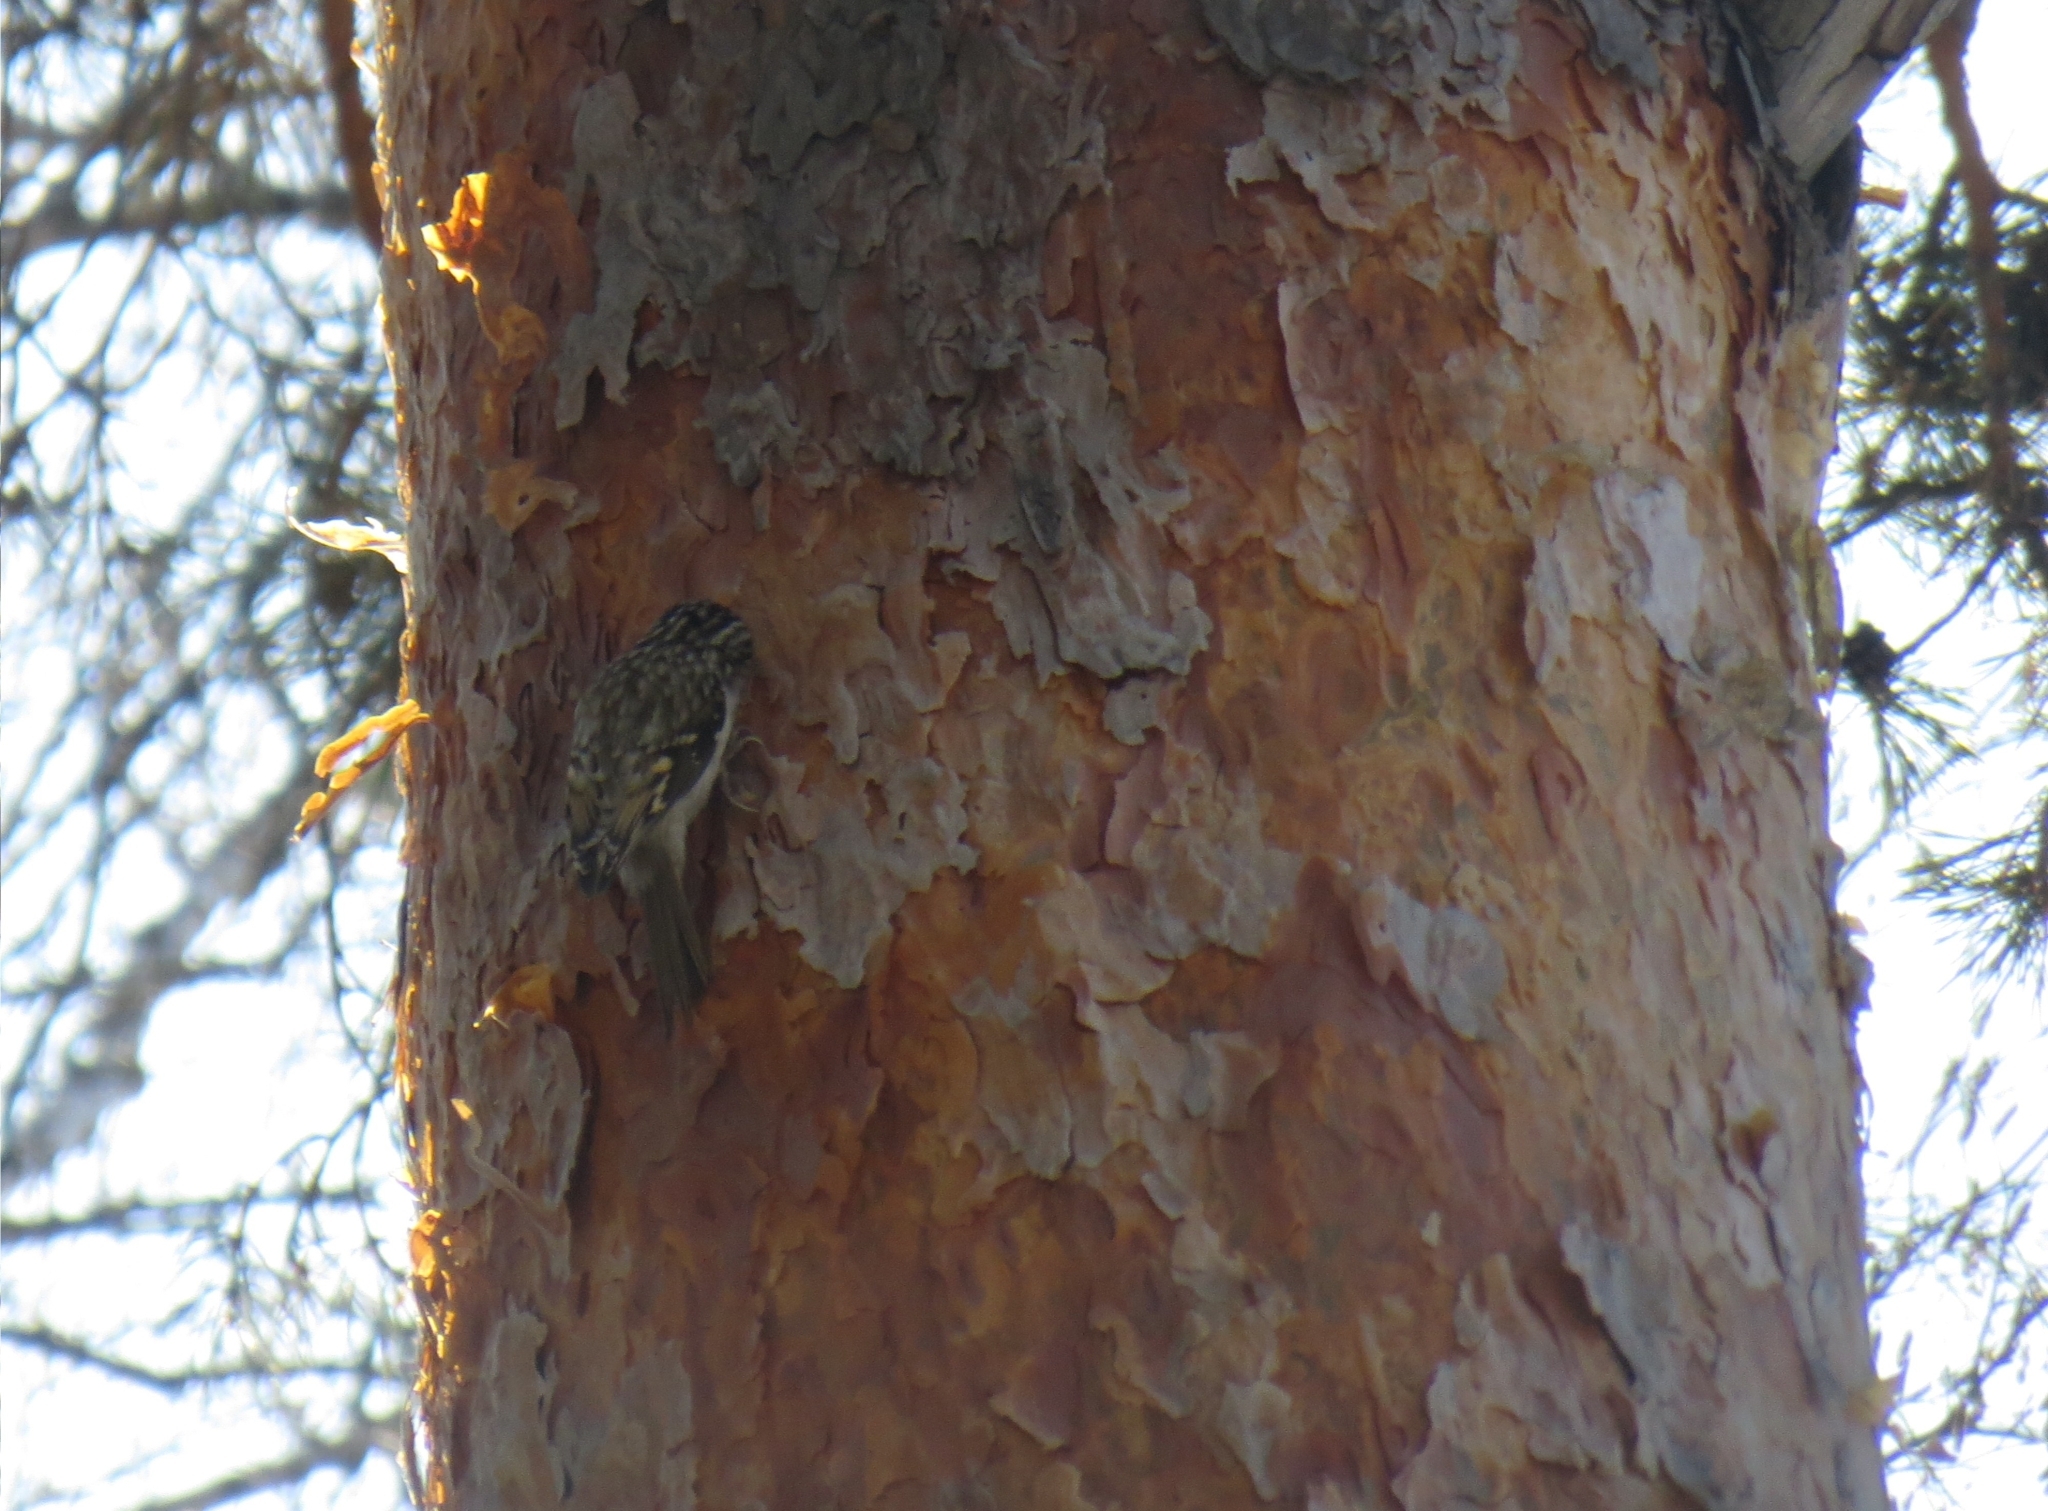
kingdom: Animalia
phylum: Chordata
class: Aves
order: Passeriformes
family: Certhiidae
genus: Certhia
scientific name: Certhia familiaris
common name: Eurasian treecreeper
